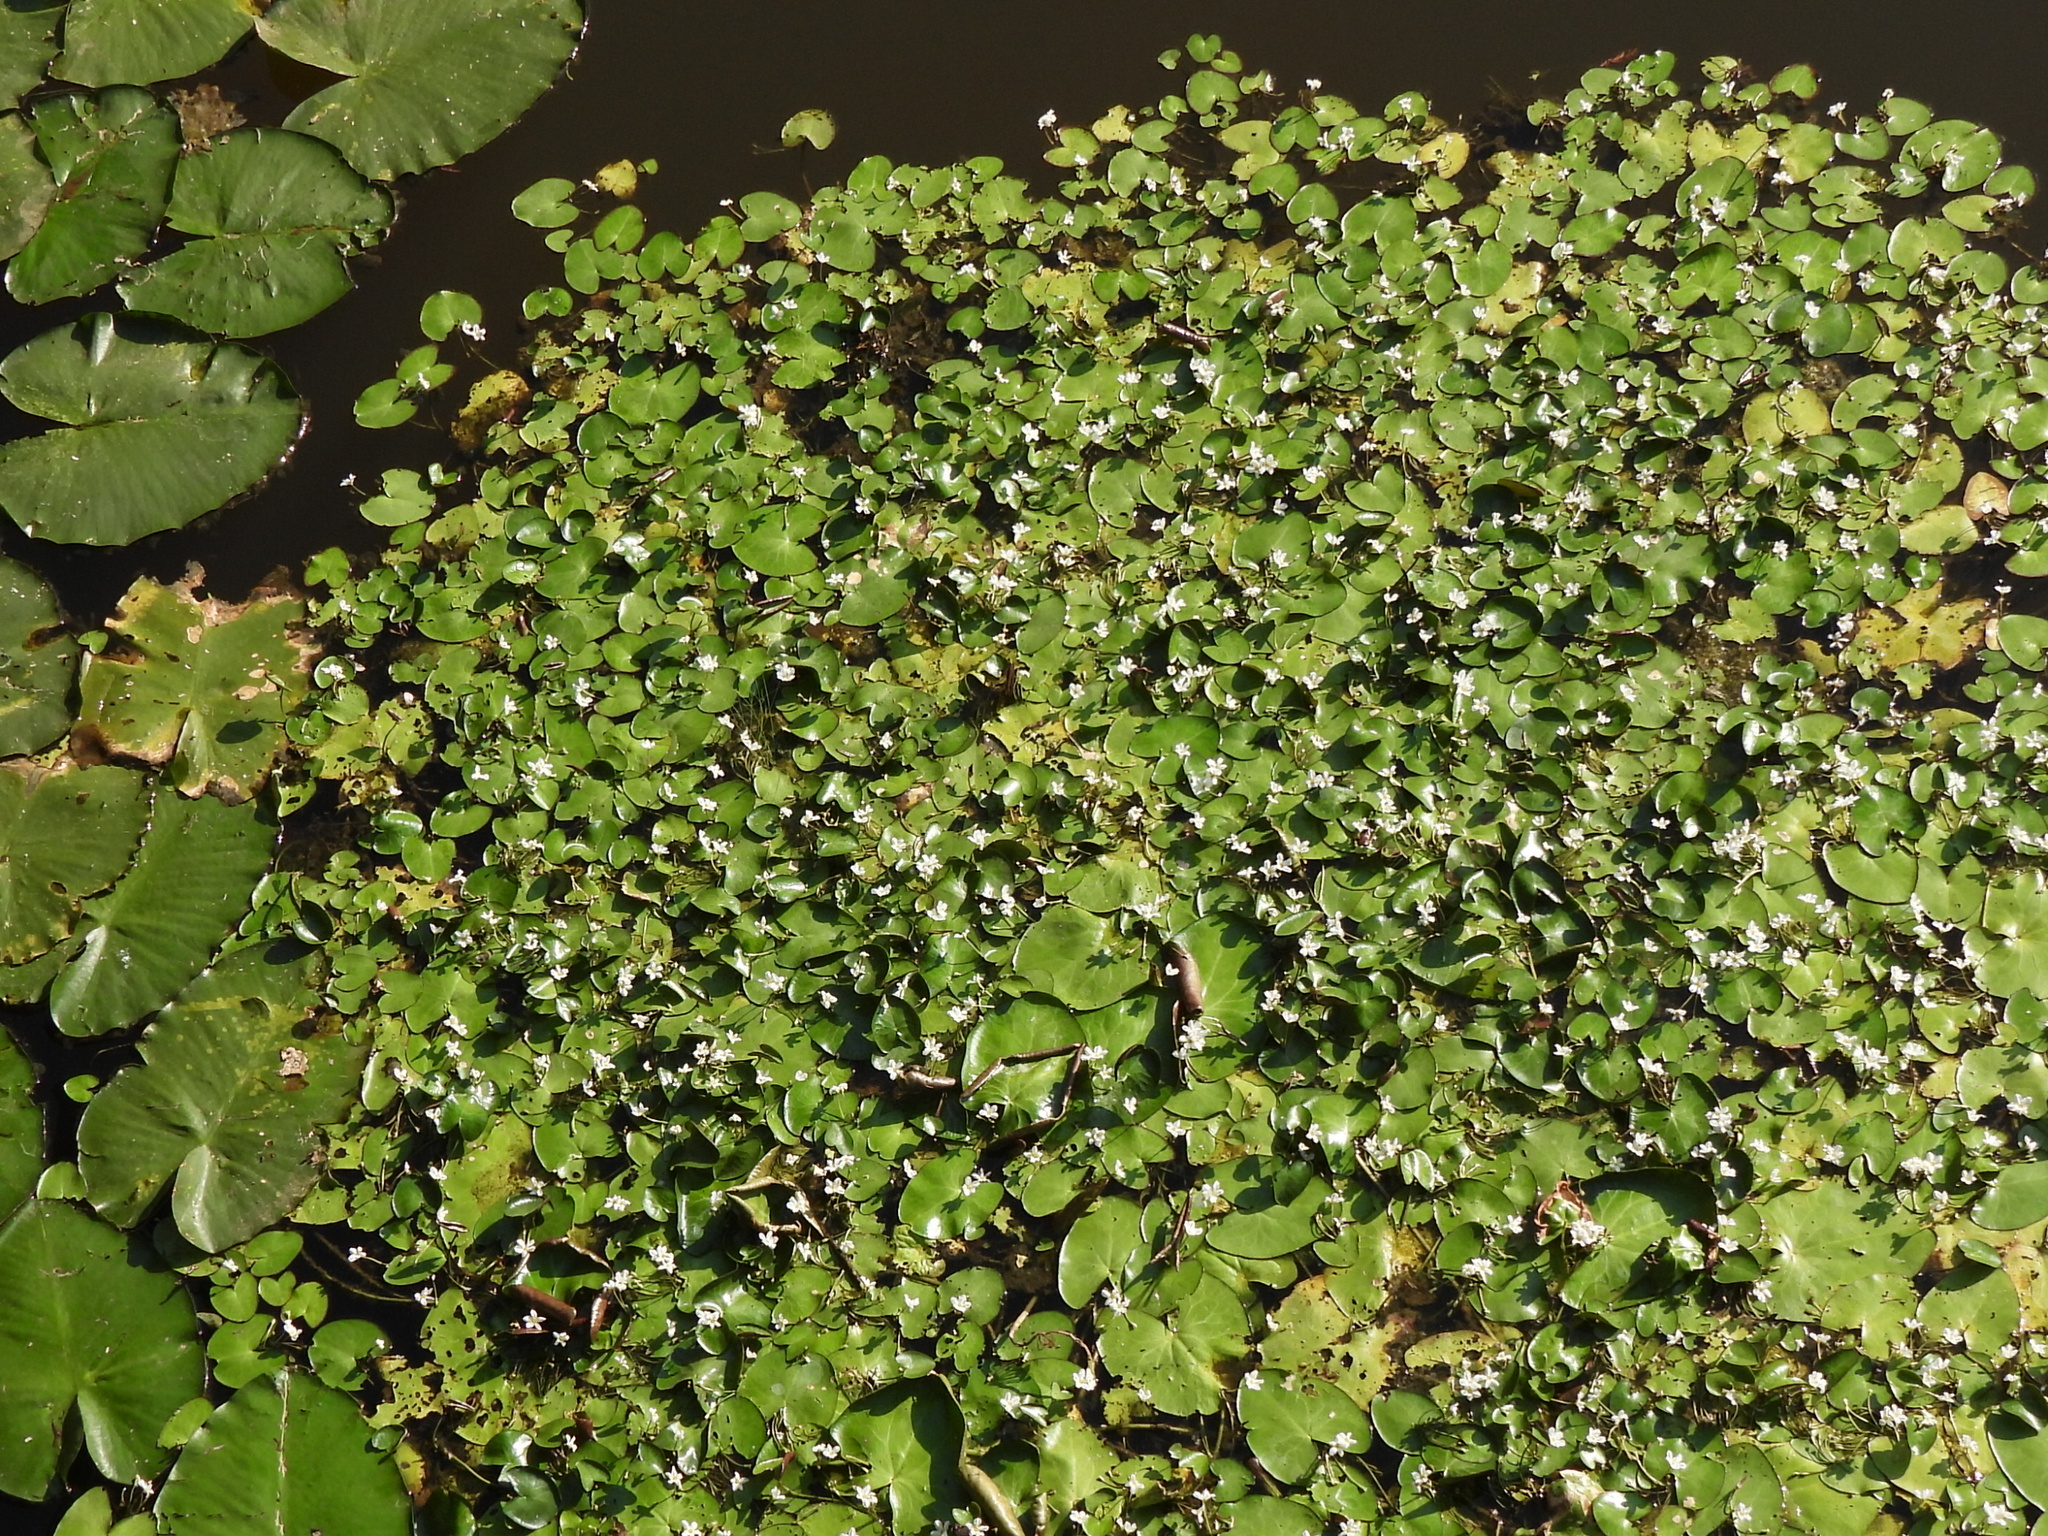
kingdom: Plantae
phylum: Tracheophyta
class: Magnoliopsida
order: Asterales
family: Menyanthaceae
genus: Nymphoides
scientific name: Nymphoides hydrophylla
